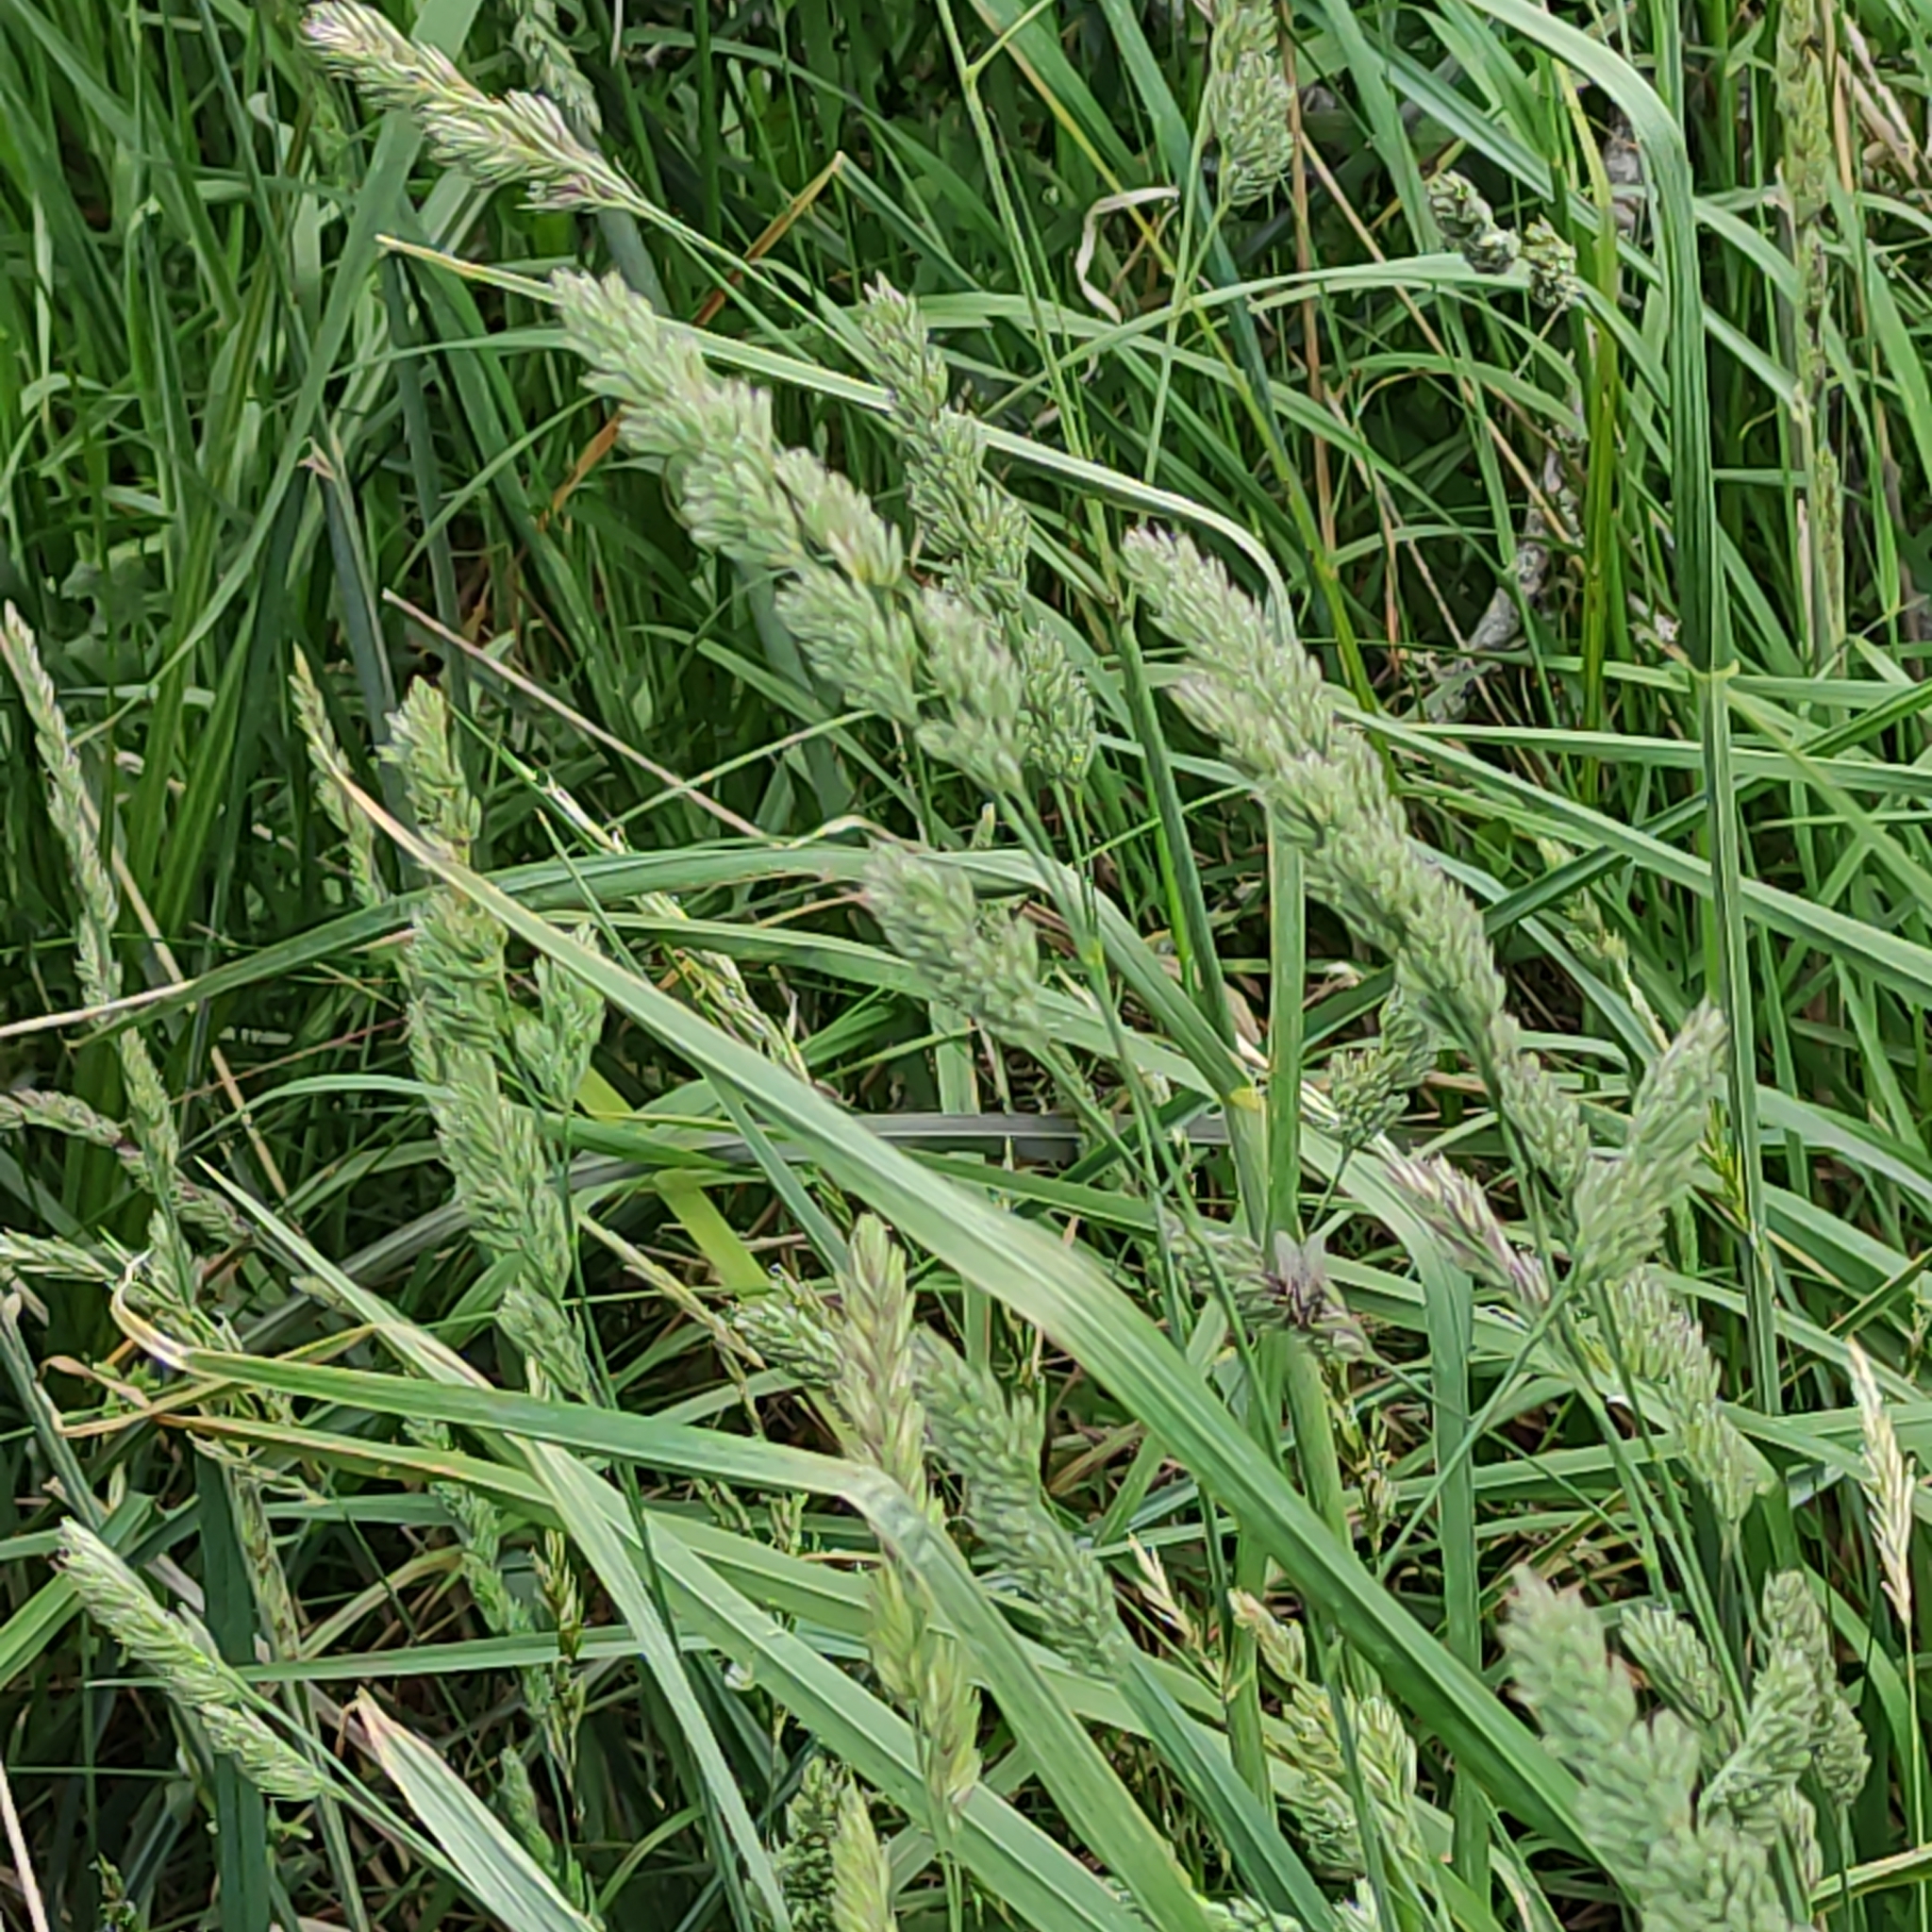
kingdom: Plantae
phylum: Tracheophyta
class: Liliopsida
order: Poales
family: Poaceae
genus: Dactylis
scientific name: Dactylis glomerata
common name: Orchardgrass
